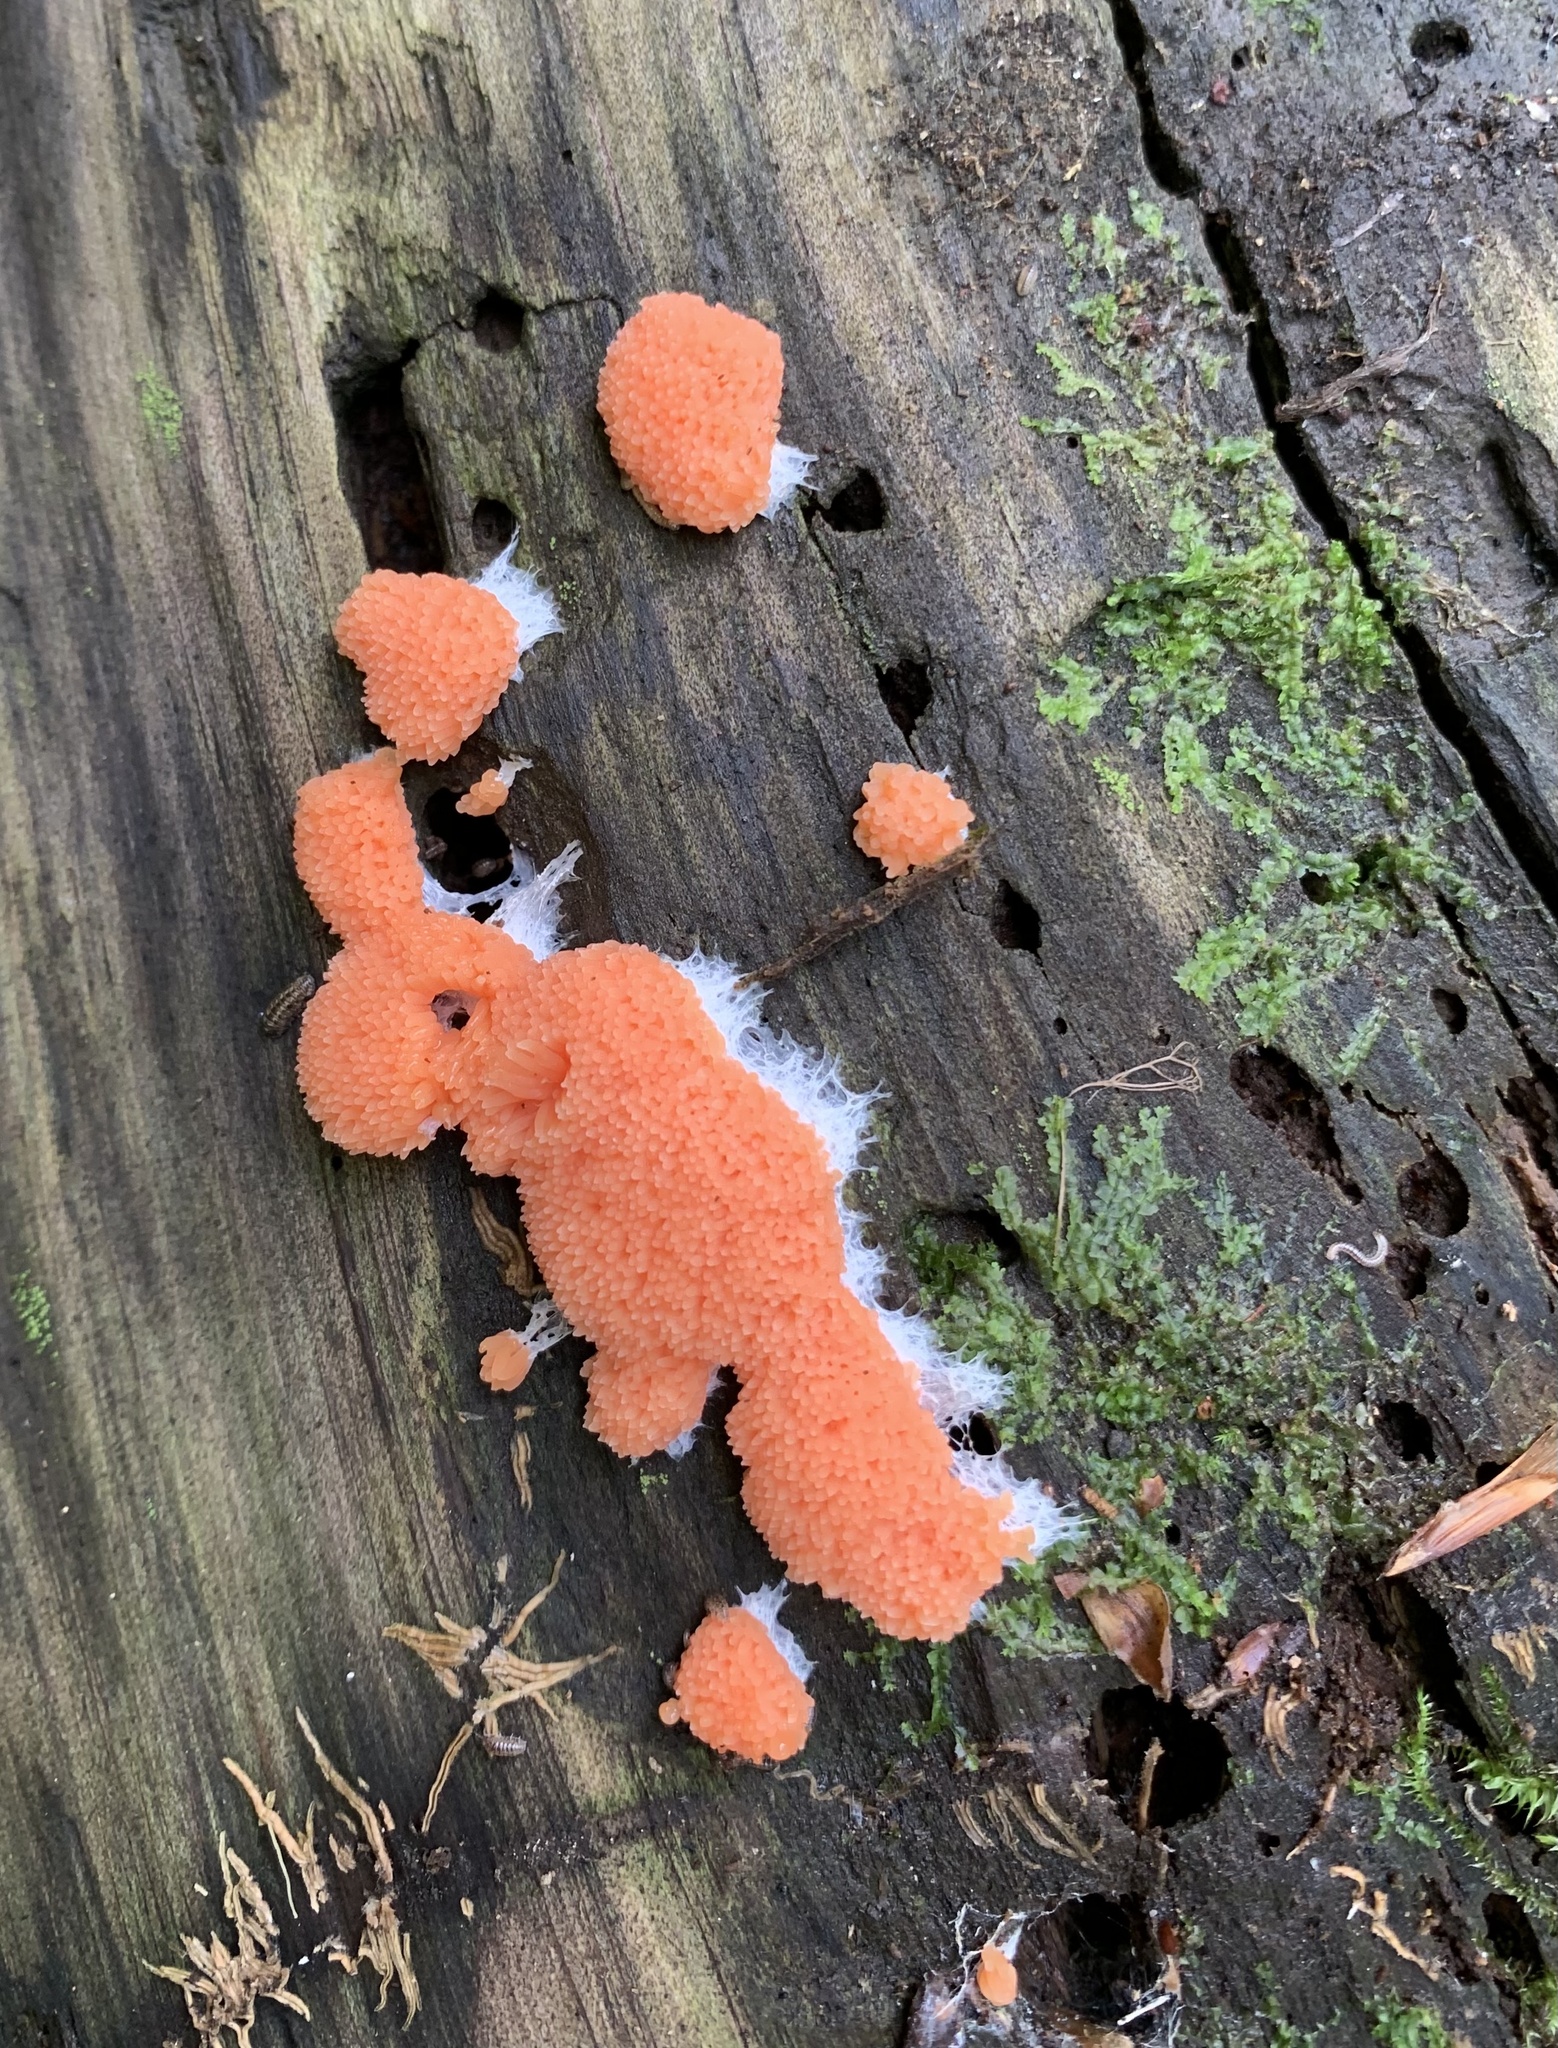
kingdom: Protozoa
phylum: Mycetozoa
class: Myxomycetes
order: Cribrariales
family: Tubiferaceae
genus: Tubifera
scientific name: Tubifera ferruginosa
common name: Red raspberry slime mold
